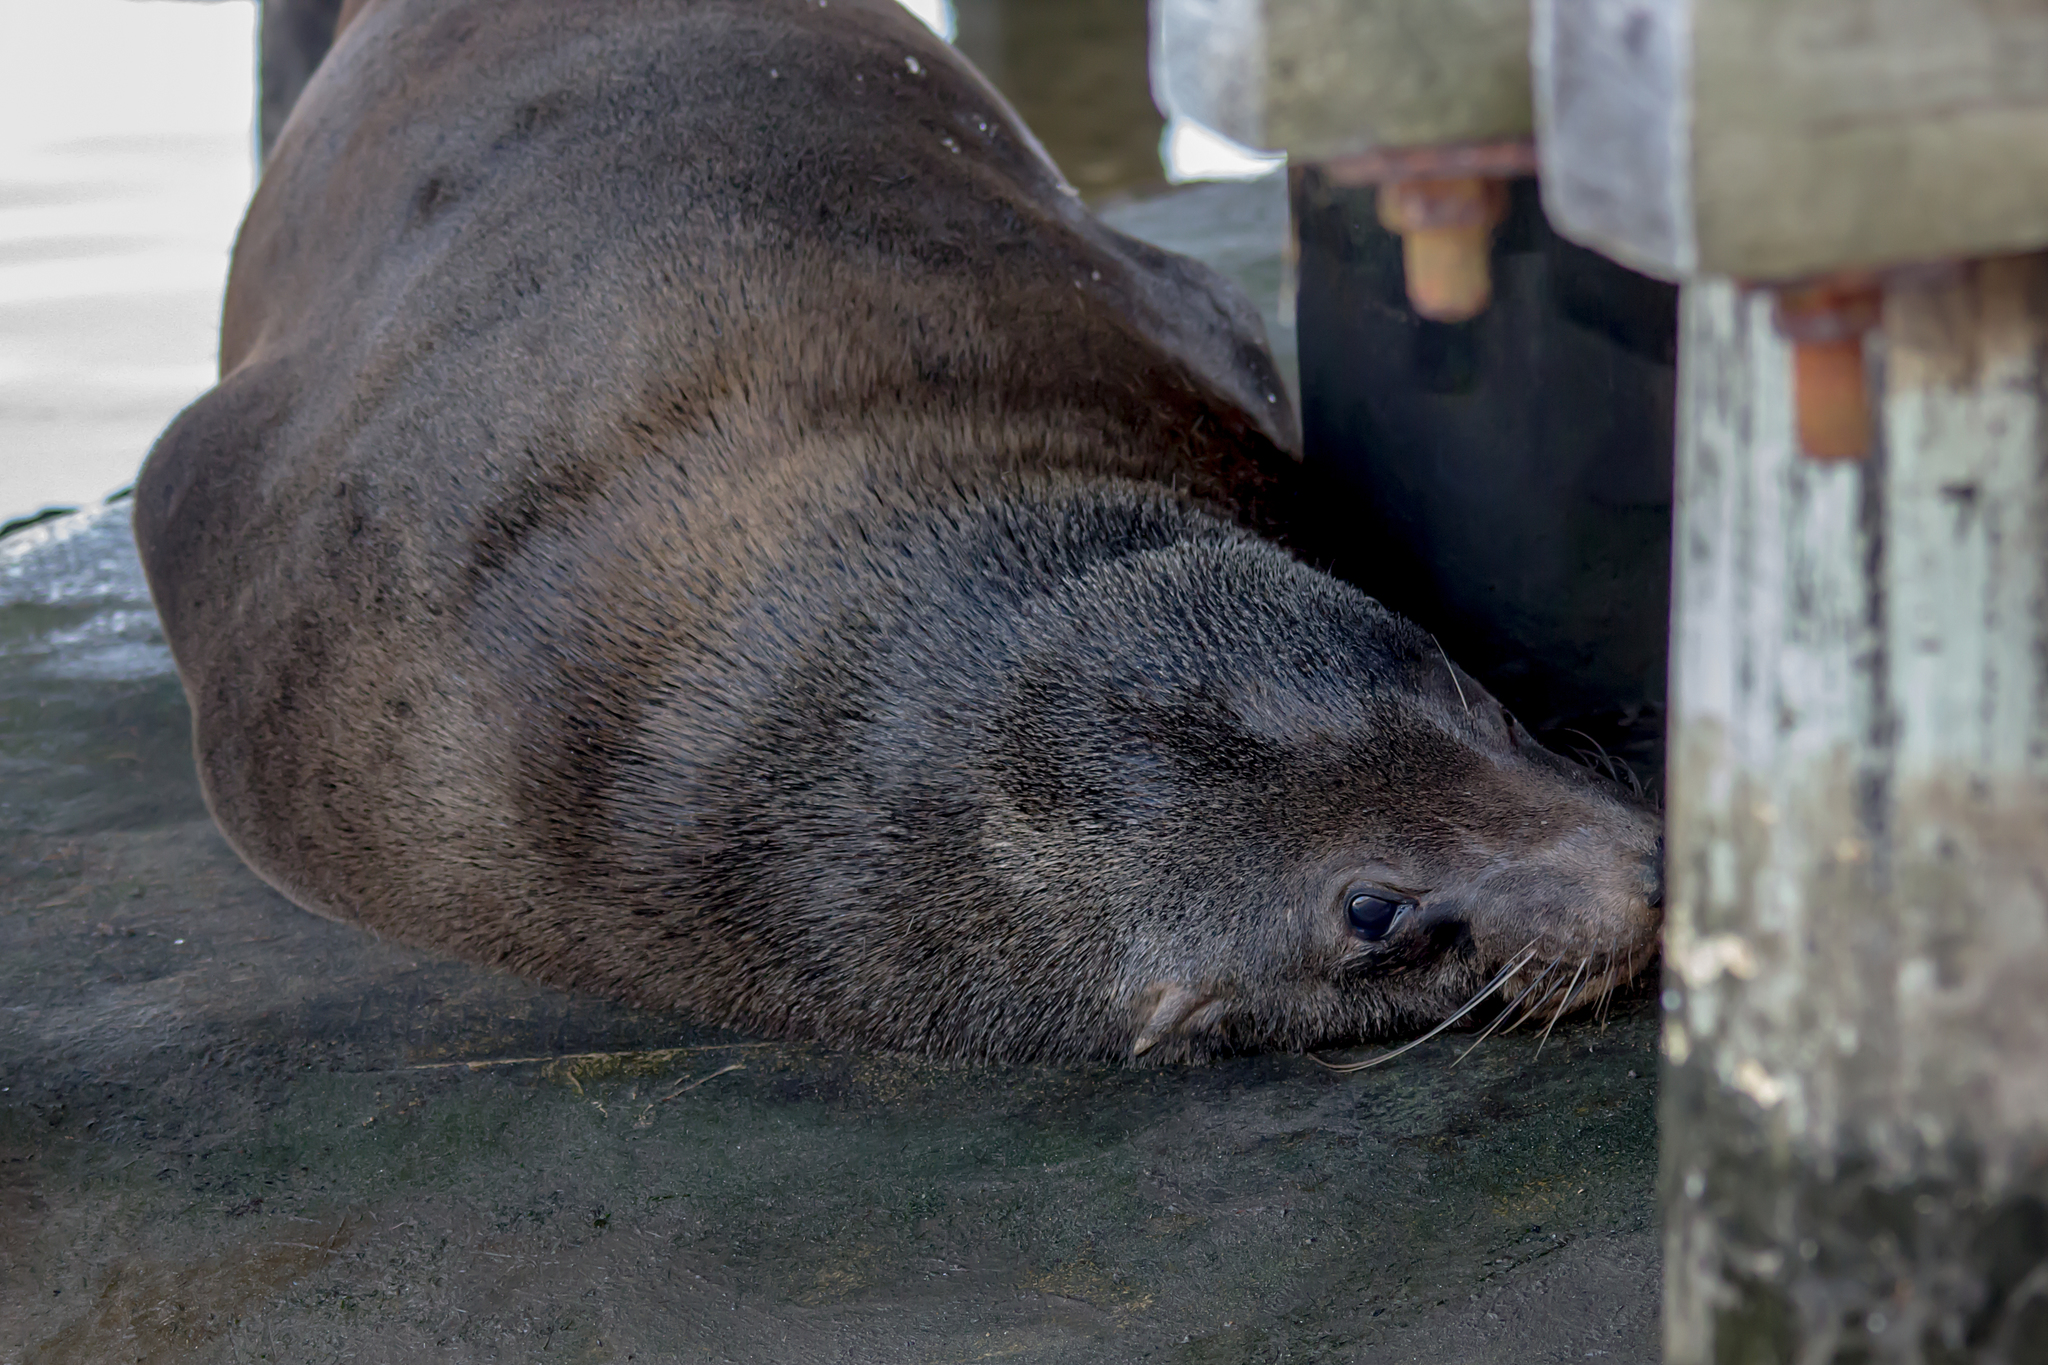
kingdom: Animalia
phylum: Chordata
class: Mammalia
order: Carnivora
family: Otariidae
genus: Arctocephalus
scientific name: Arctocephalus pusillus
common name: Brown fur seal
